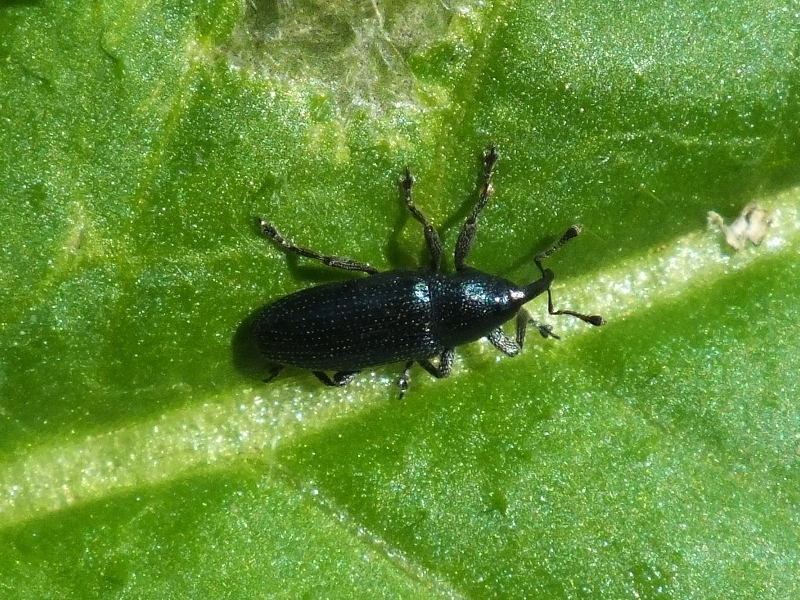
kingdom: Animalia
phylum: Arthropoda
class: Insecta
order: Coleoptera
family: Curculionidae
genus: Baridius
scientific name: Baridius janthina
